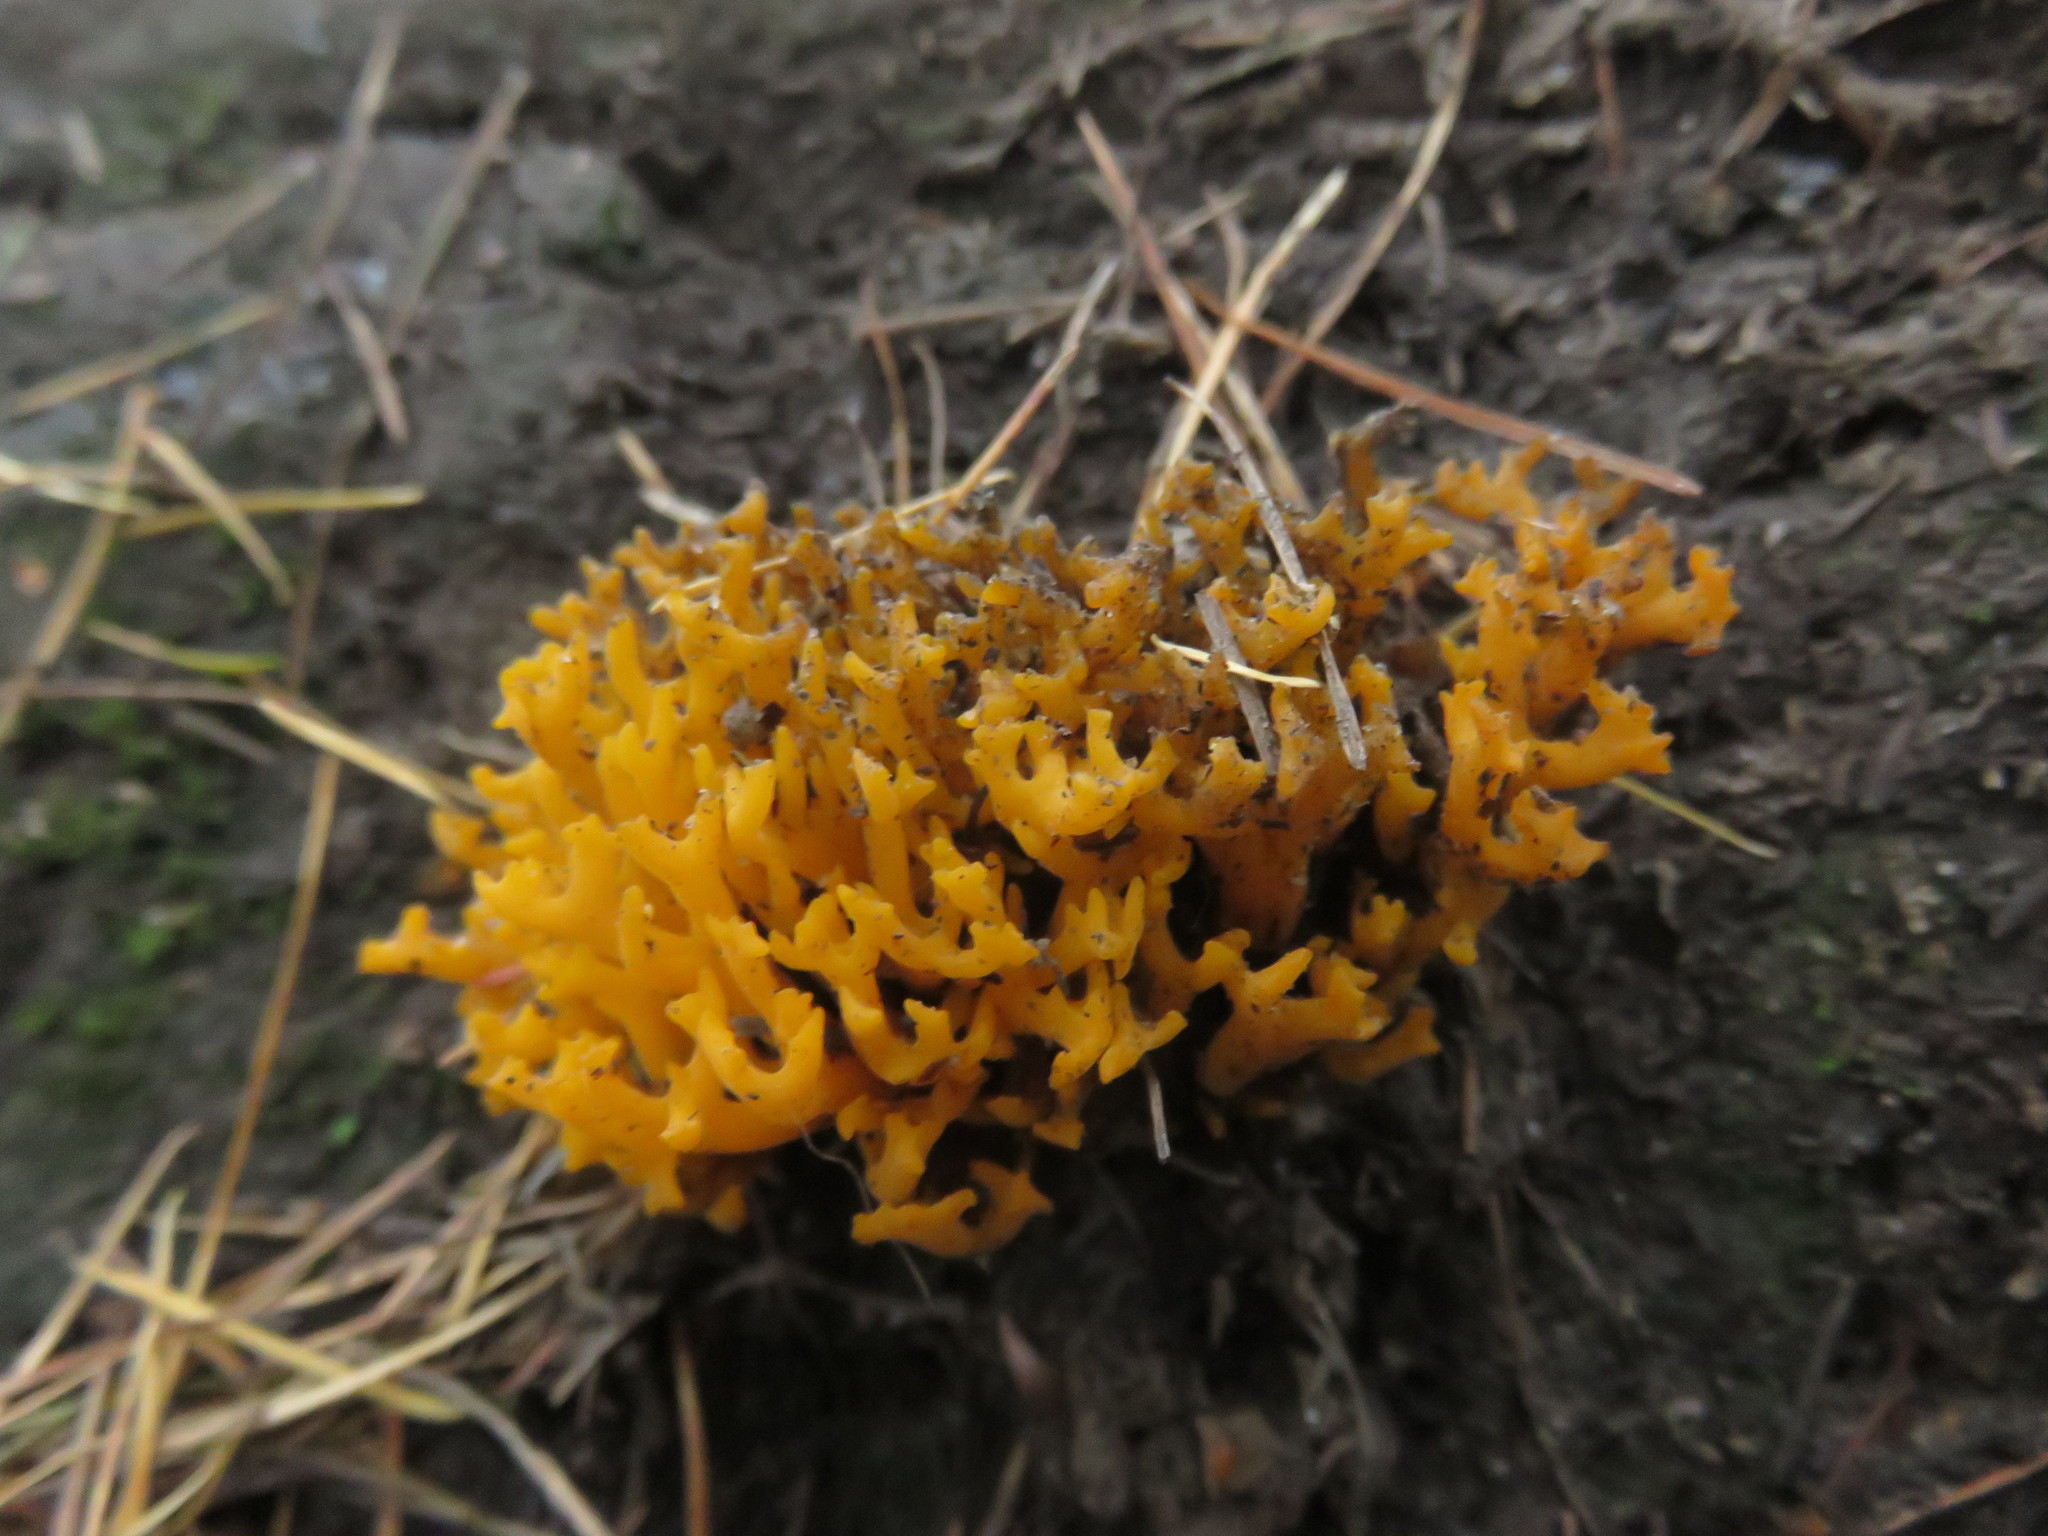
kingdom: Fungi
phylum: Basidiomycota
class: Dacrymycetes
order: Dacrymycetales
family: Dacrymycetaceae
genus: Calocera
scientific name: Calocera viscosa
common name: Yellow stagshorn
